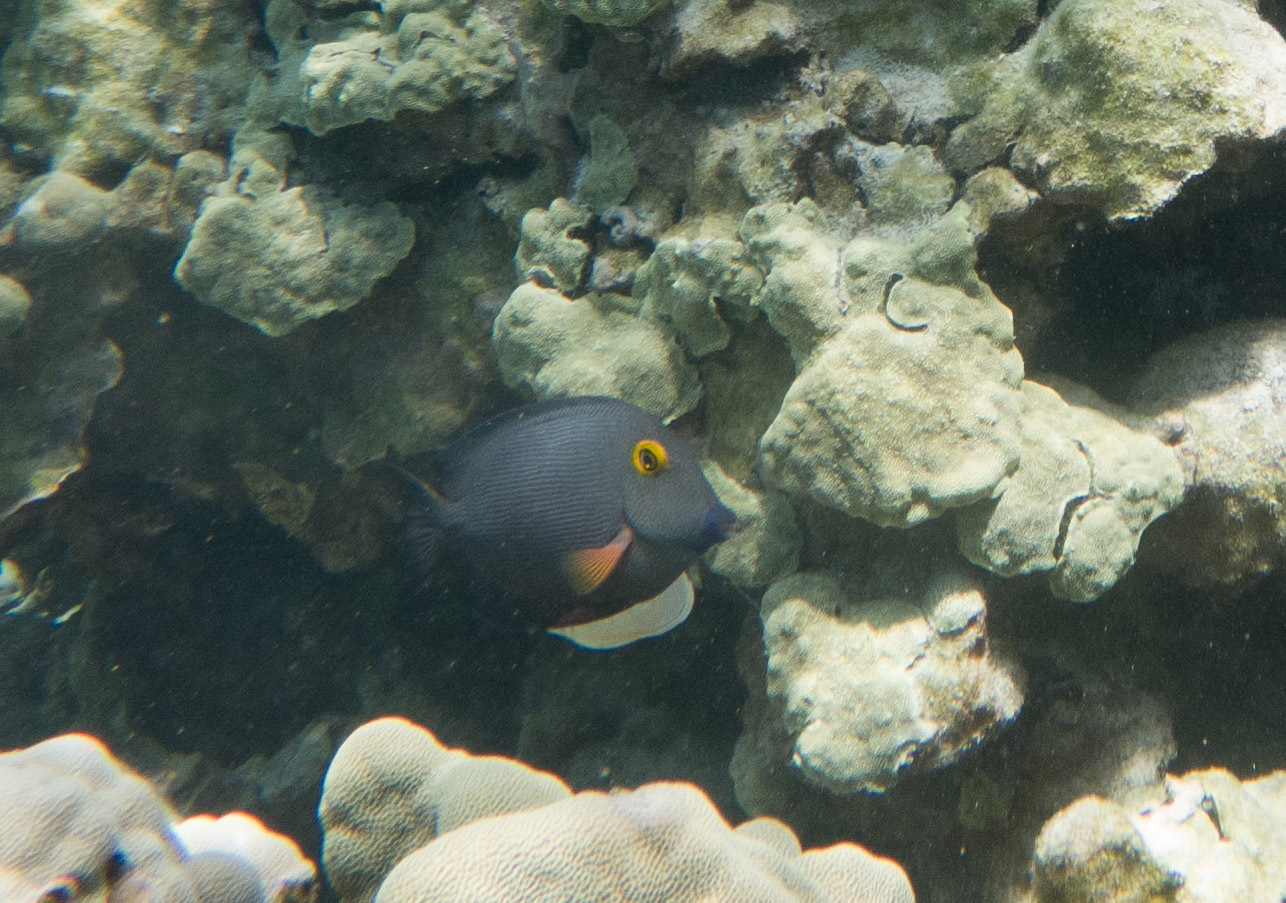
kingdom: Animalia
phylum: Chordata
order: Perciformes
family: Acanthuridae
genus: Ctenochaetus
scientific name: Ctenochaetus strigosus
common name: Bristletoothed surgeonfish
